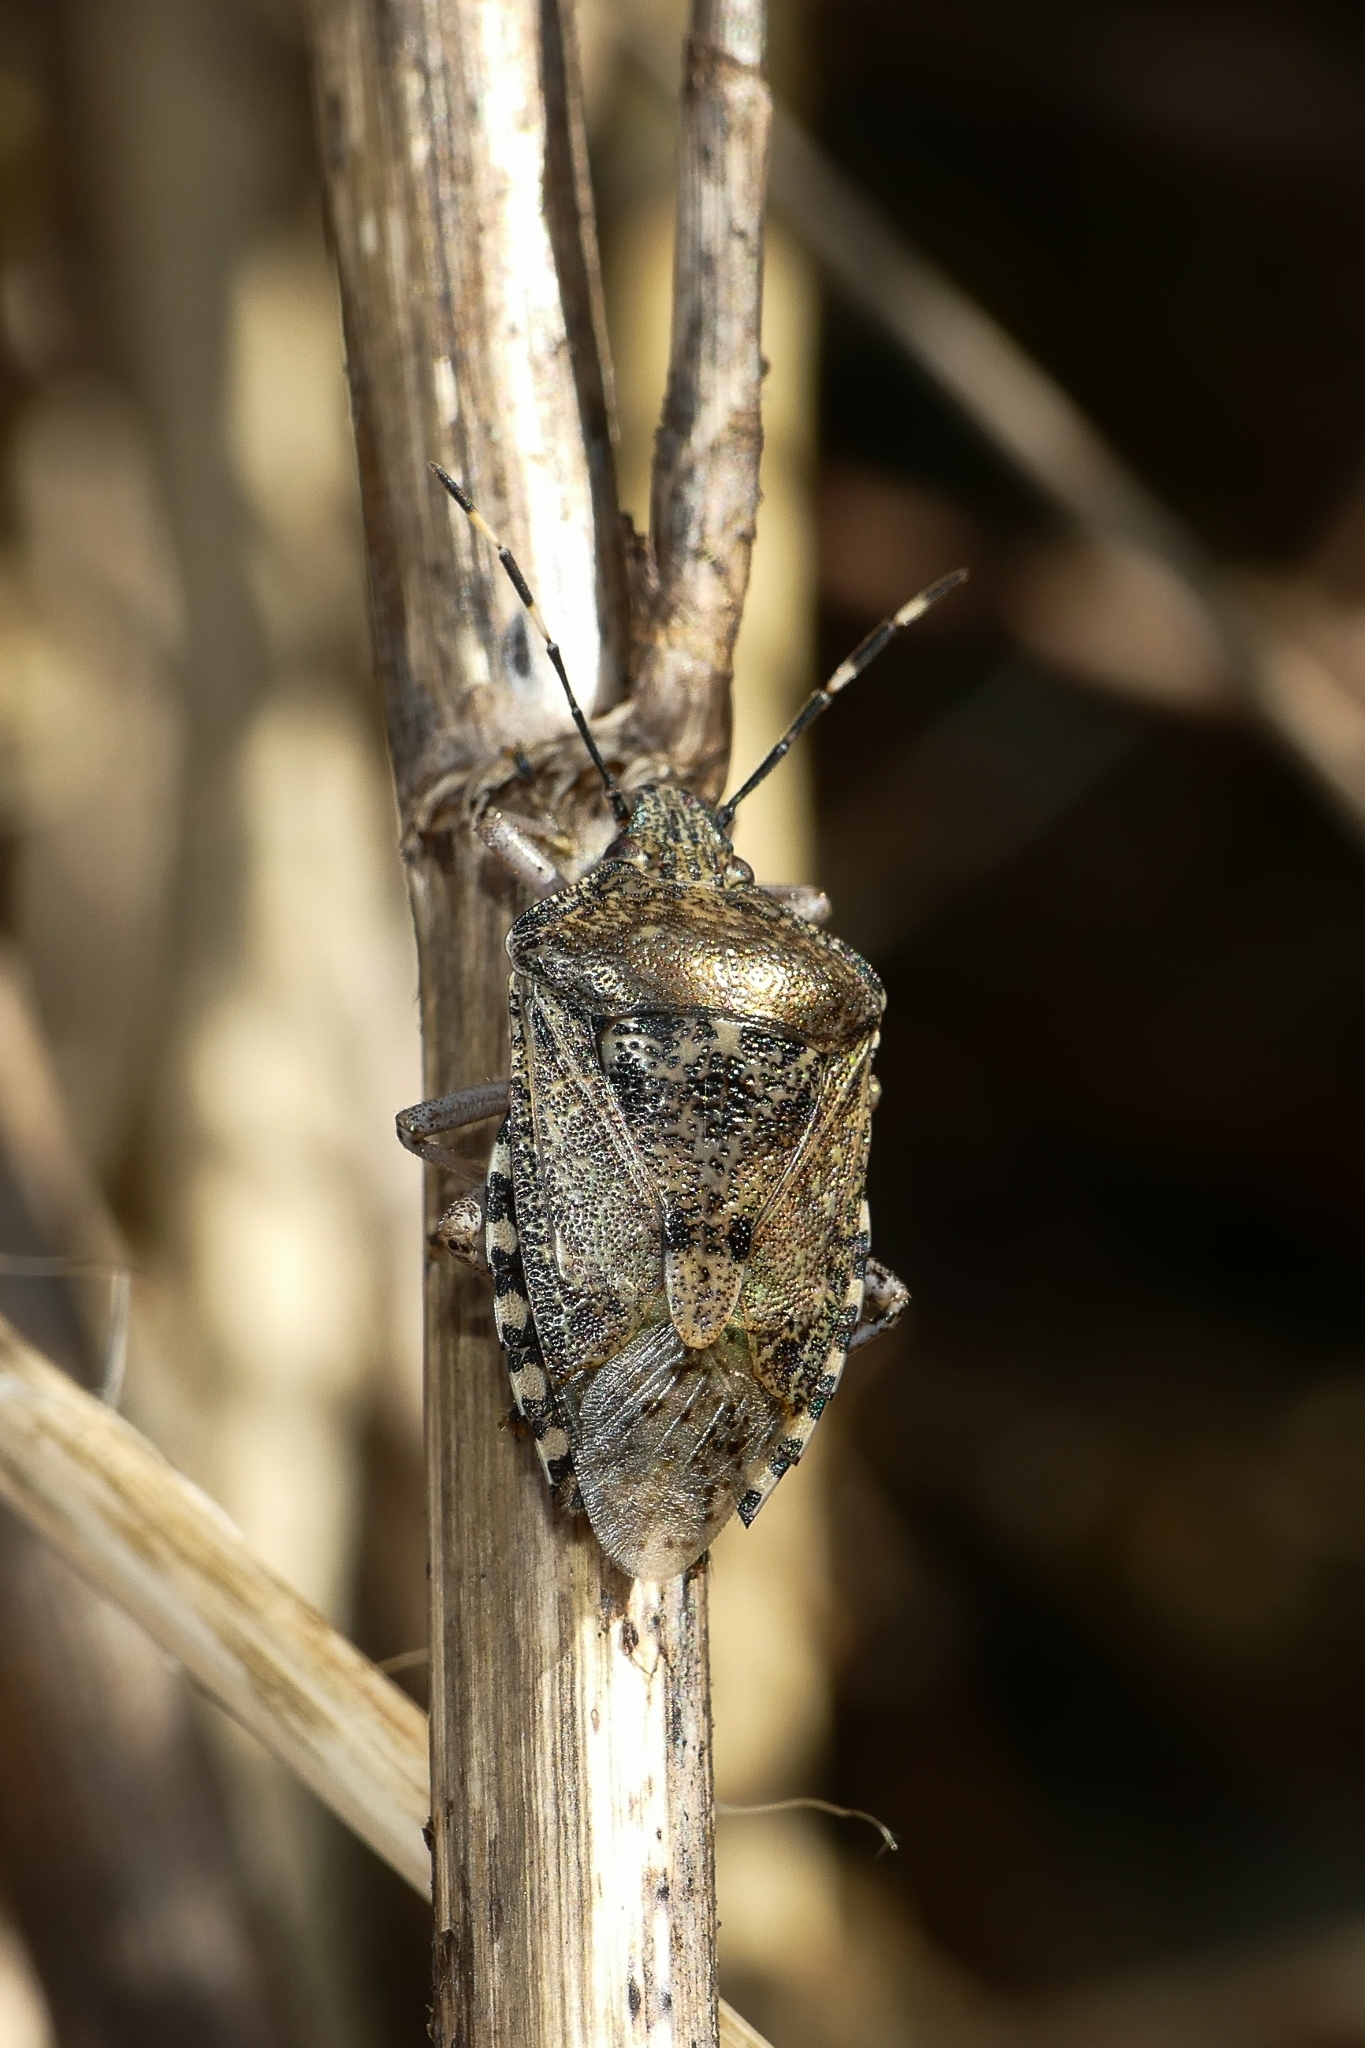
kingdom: Animalia
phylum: Arthropoda
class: Insecta
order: Hemiptera
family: Pentatomidae
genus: Rhaphigaster
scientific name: Rhaphigaster nebulosa
